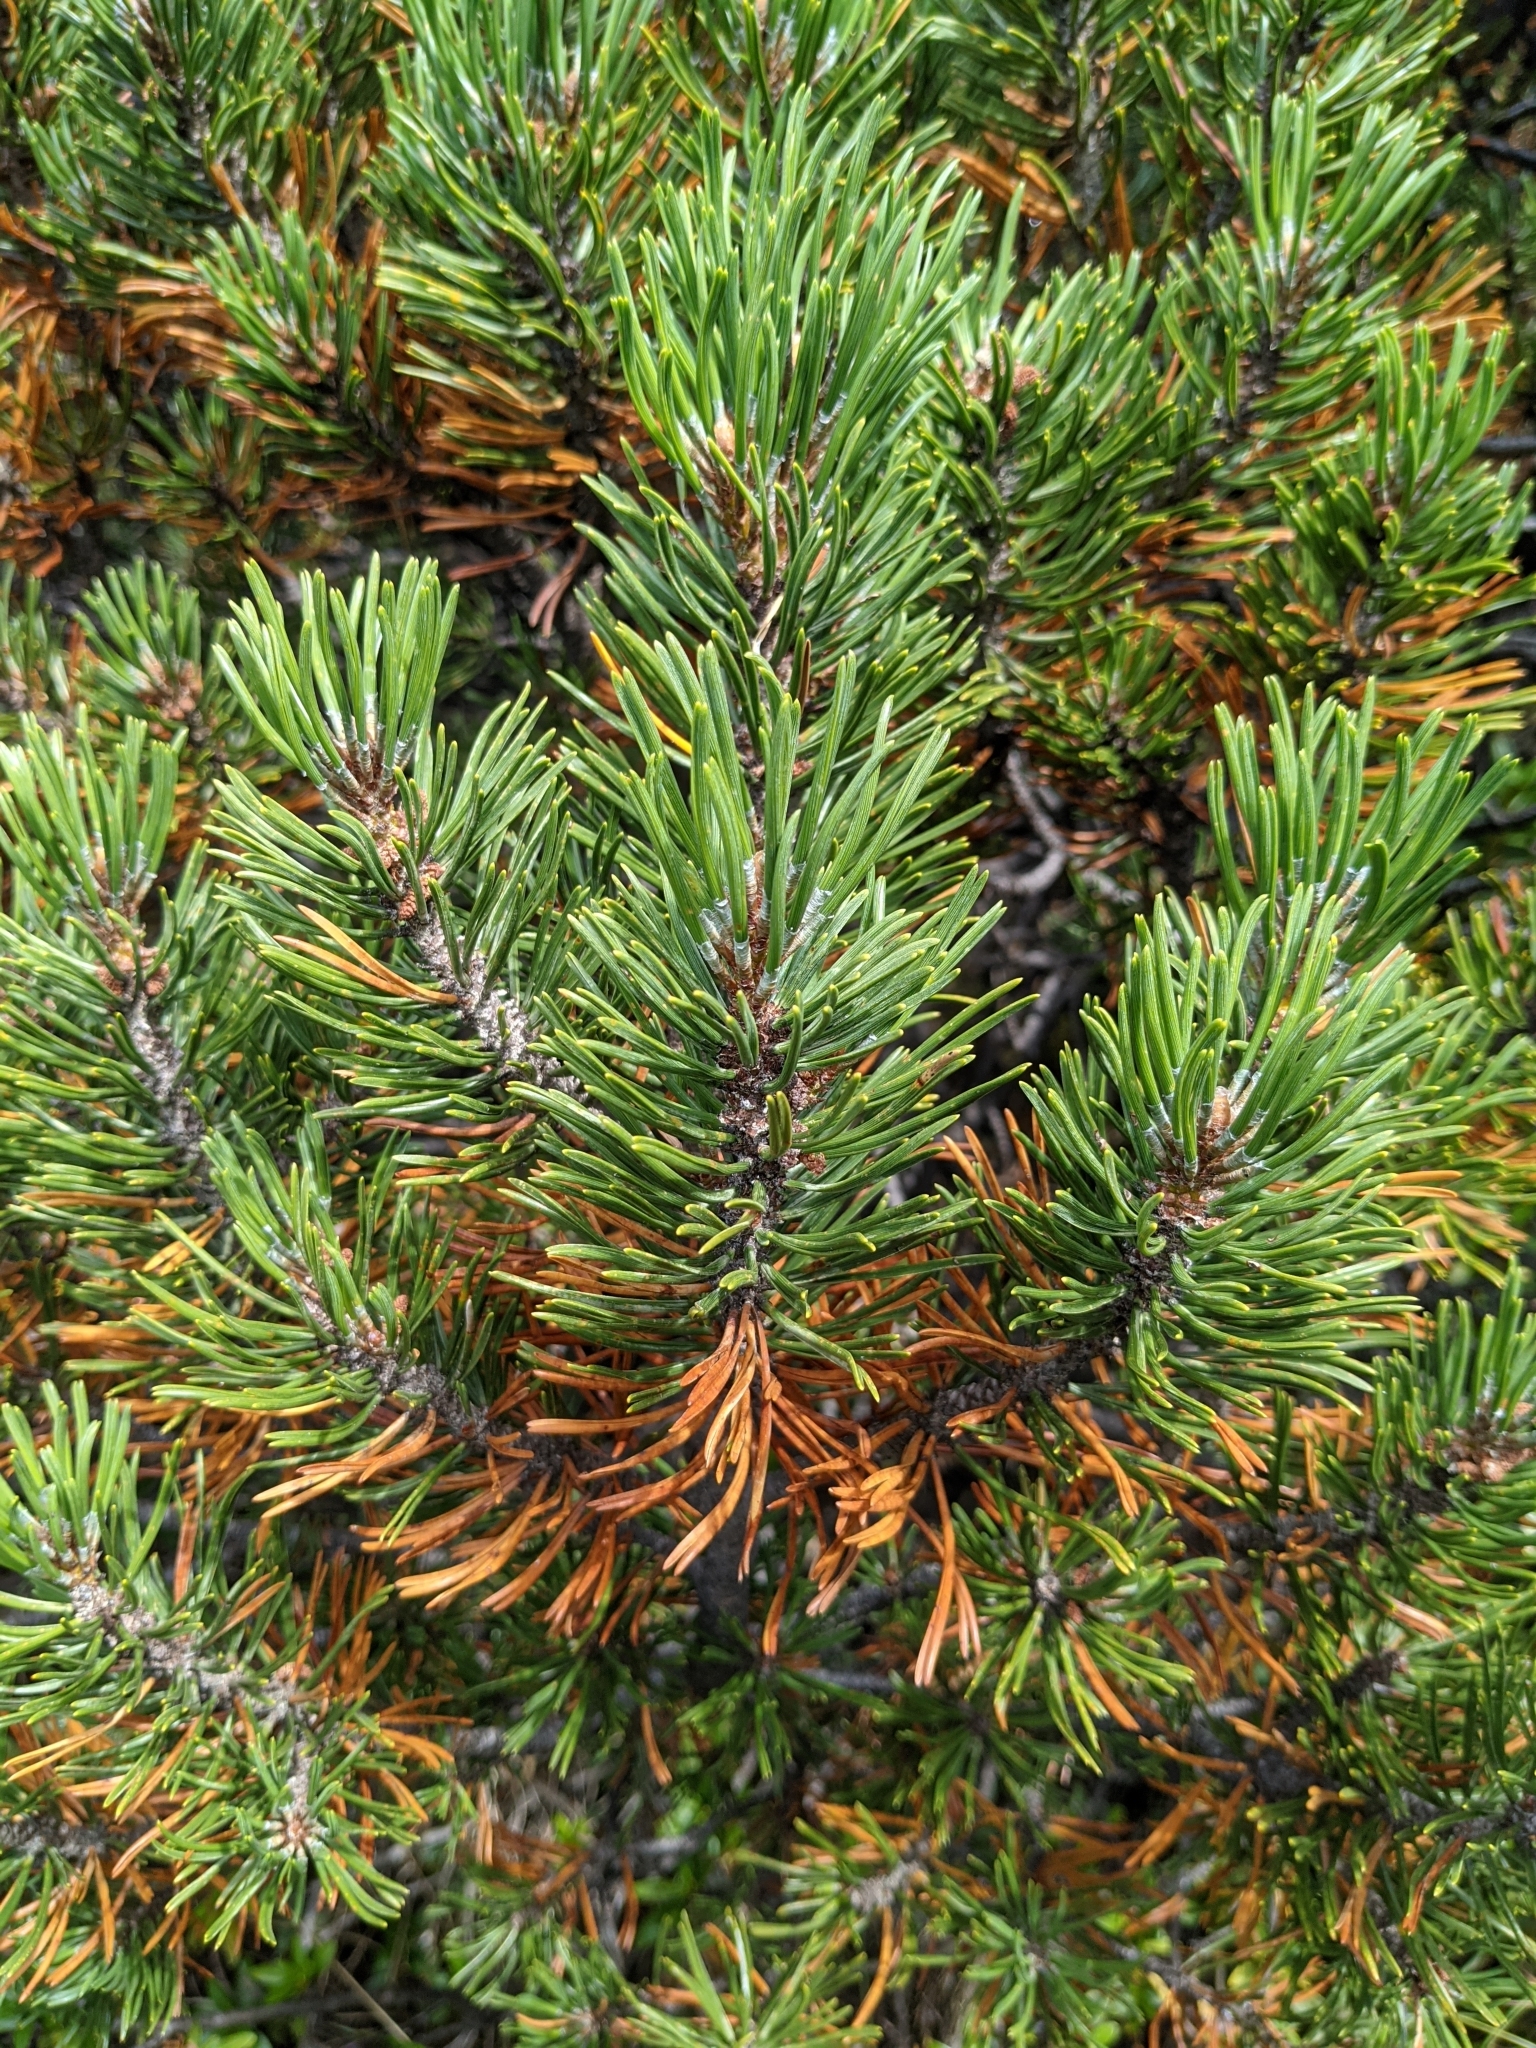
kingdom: Plantae
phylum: Tracheophyta
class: Pinopsida
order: Pinales
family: Pinaceae
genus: Pinus
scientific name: Pinus mugo
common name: Mugo pine
